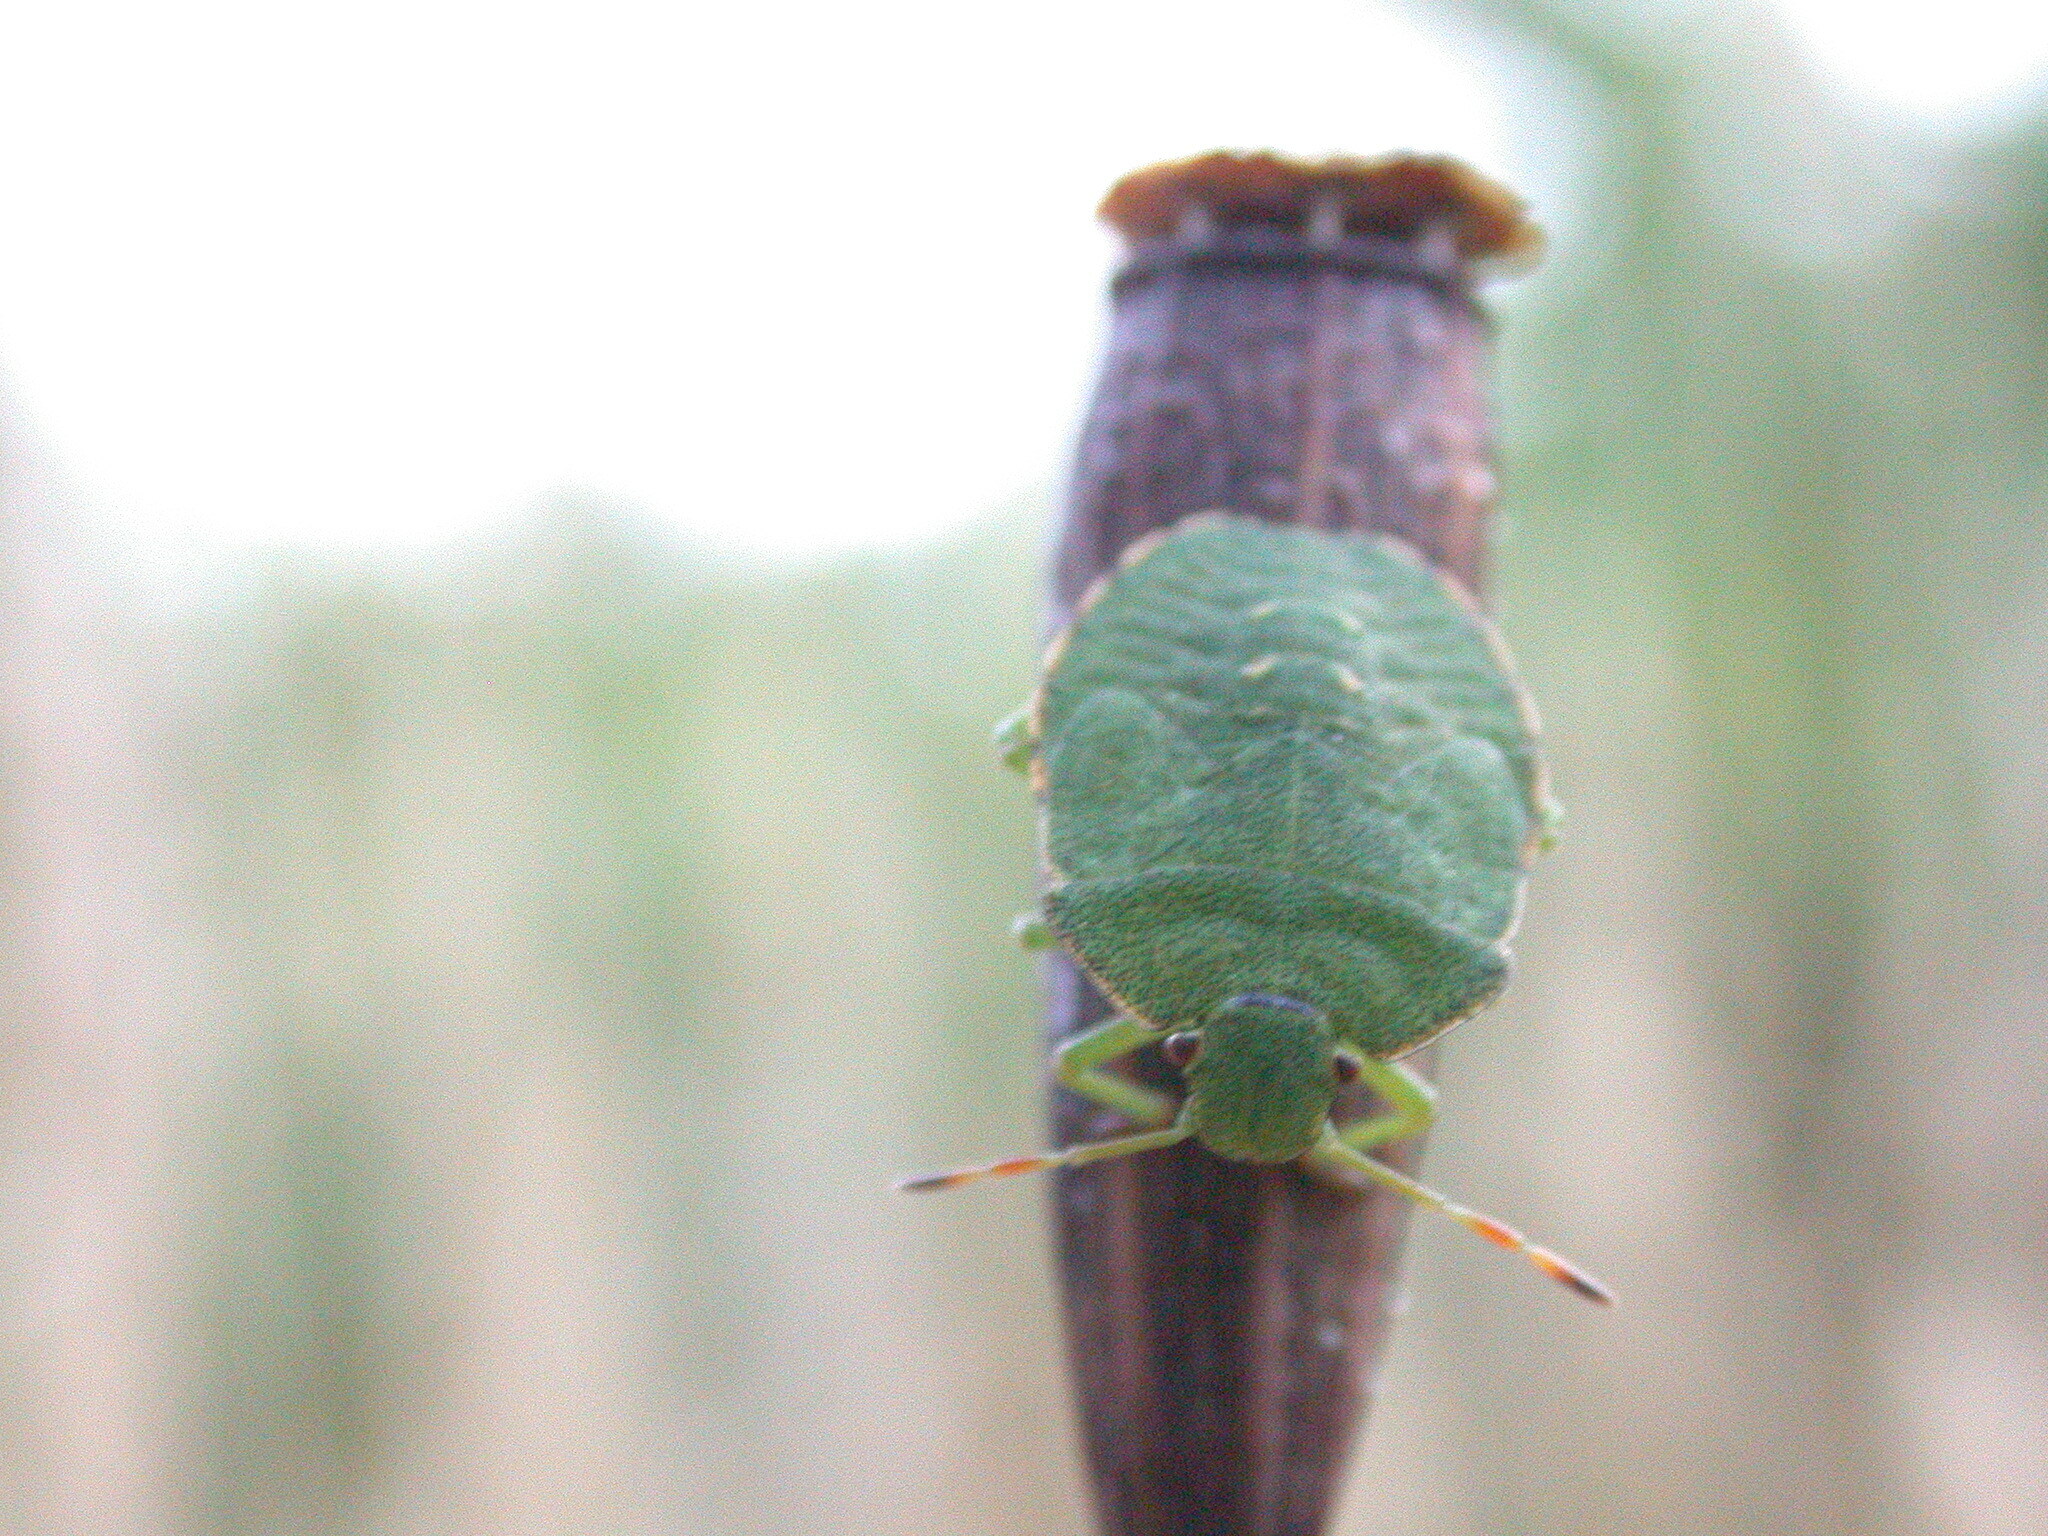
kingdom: Animalia
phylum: Arthropoda
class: Insecta
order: Hemiptera
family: Pentatomidae
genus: Palomena
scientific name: Palomena prasina
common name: Green shieldbug
